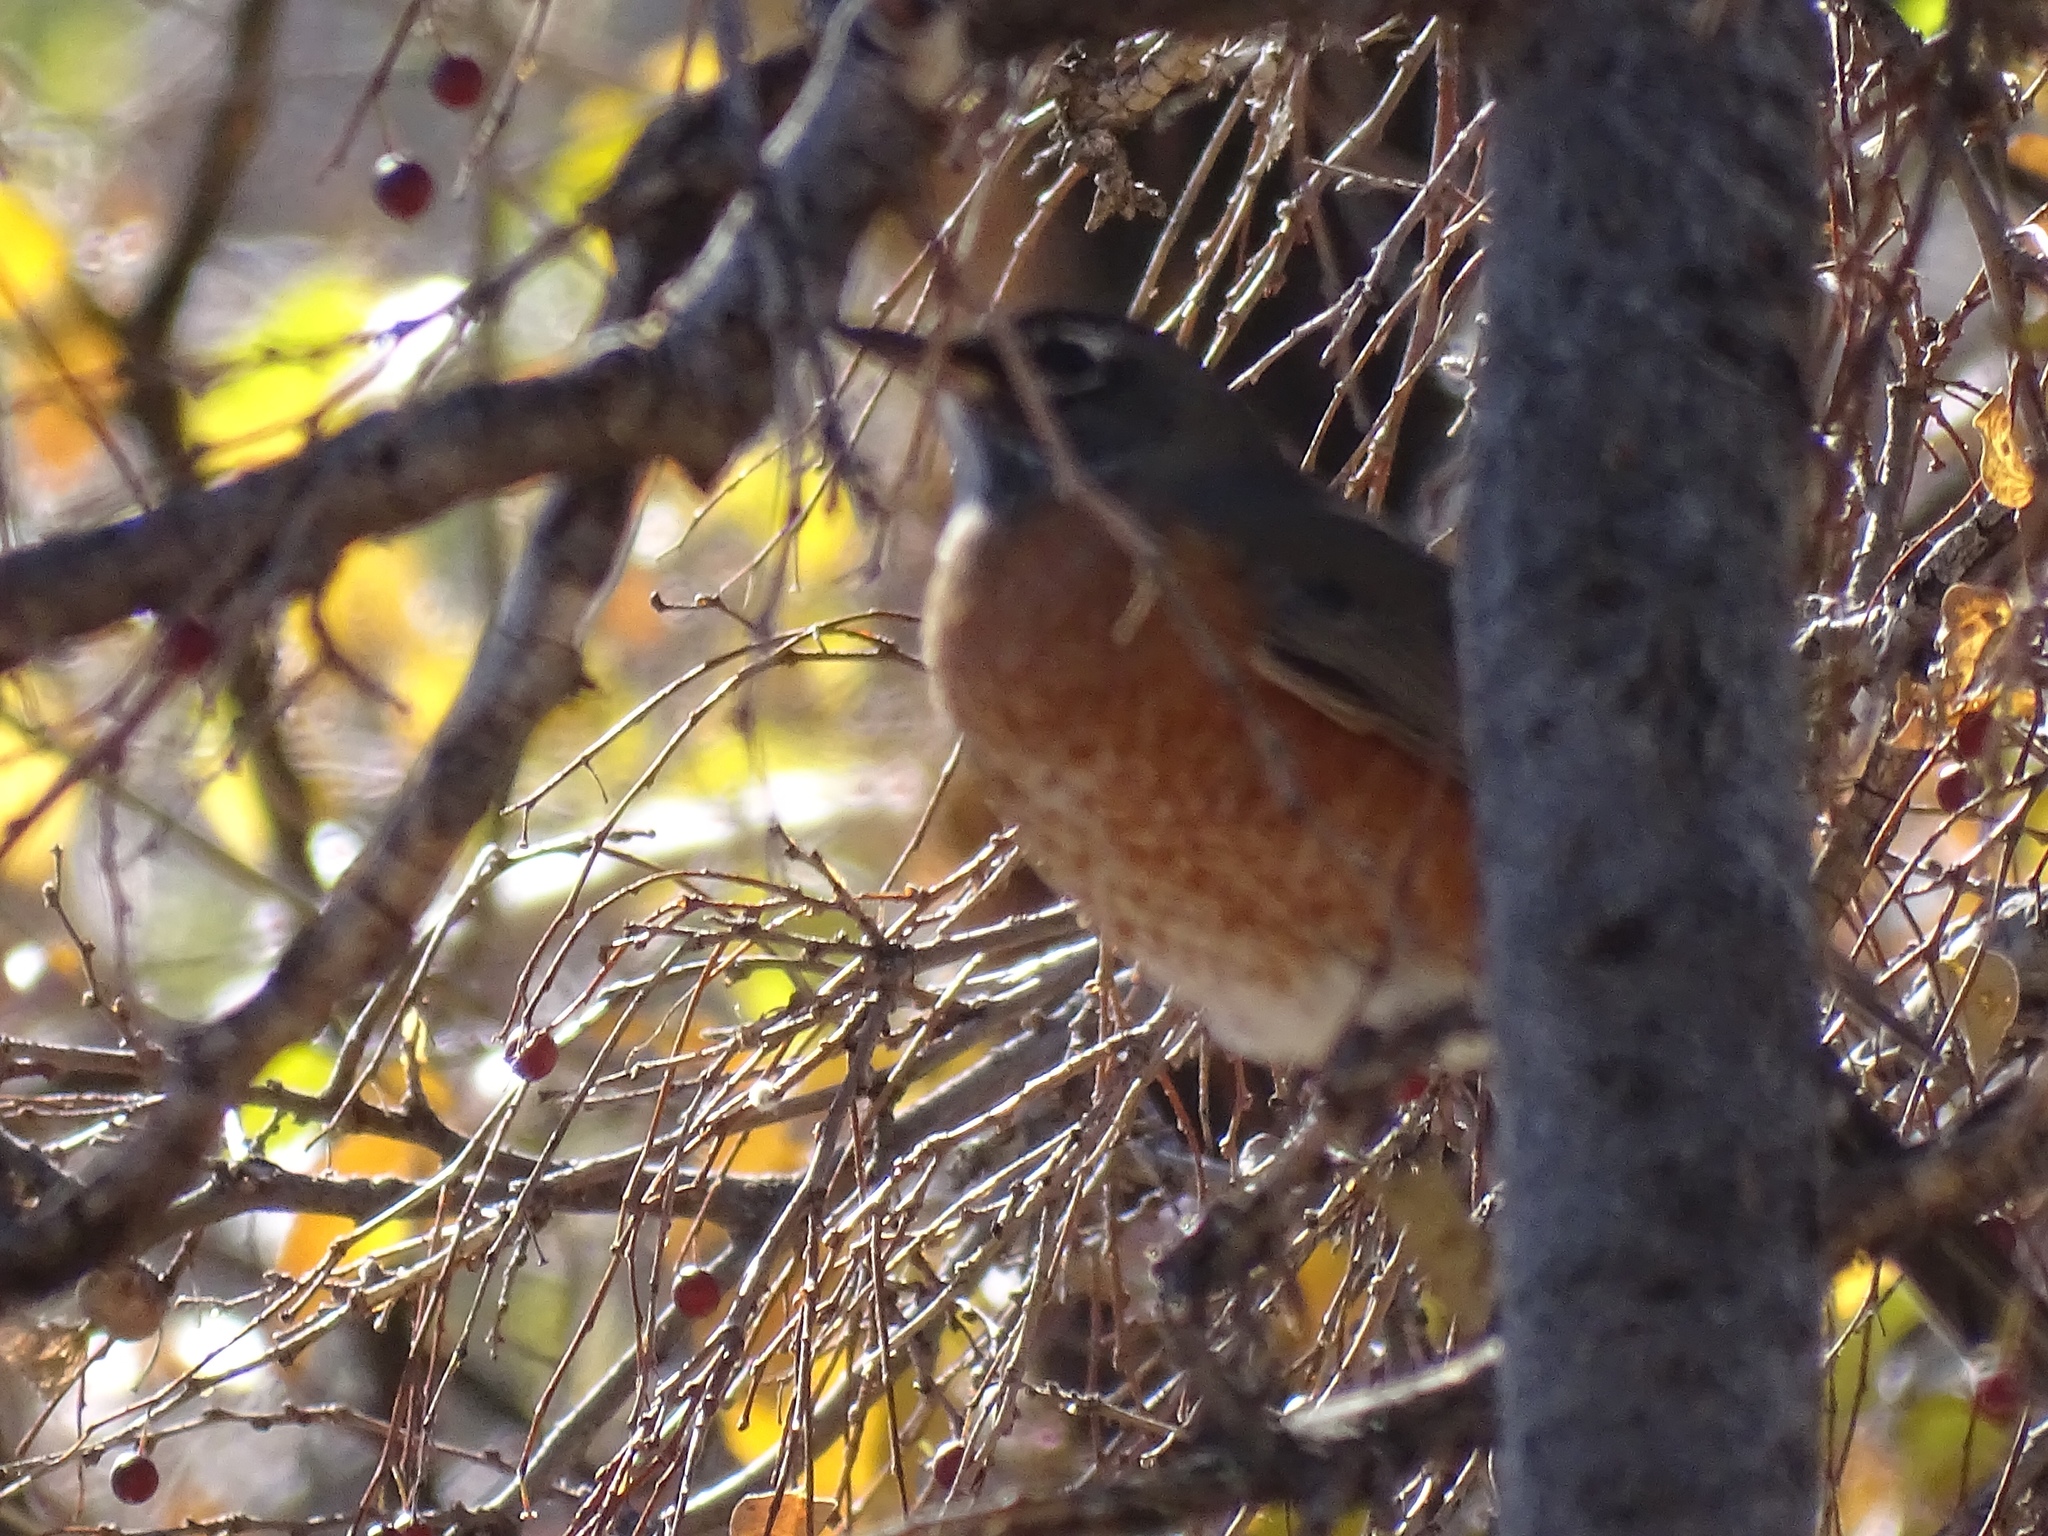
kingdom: Animalia
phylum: Chordata
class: Aves
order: Passeriformes
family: Turdidae
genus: Turdus
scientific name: Turdus migratorius
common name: American robin
